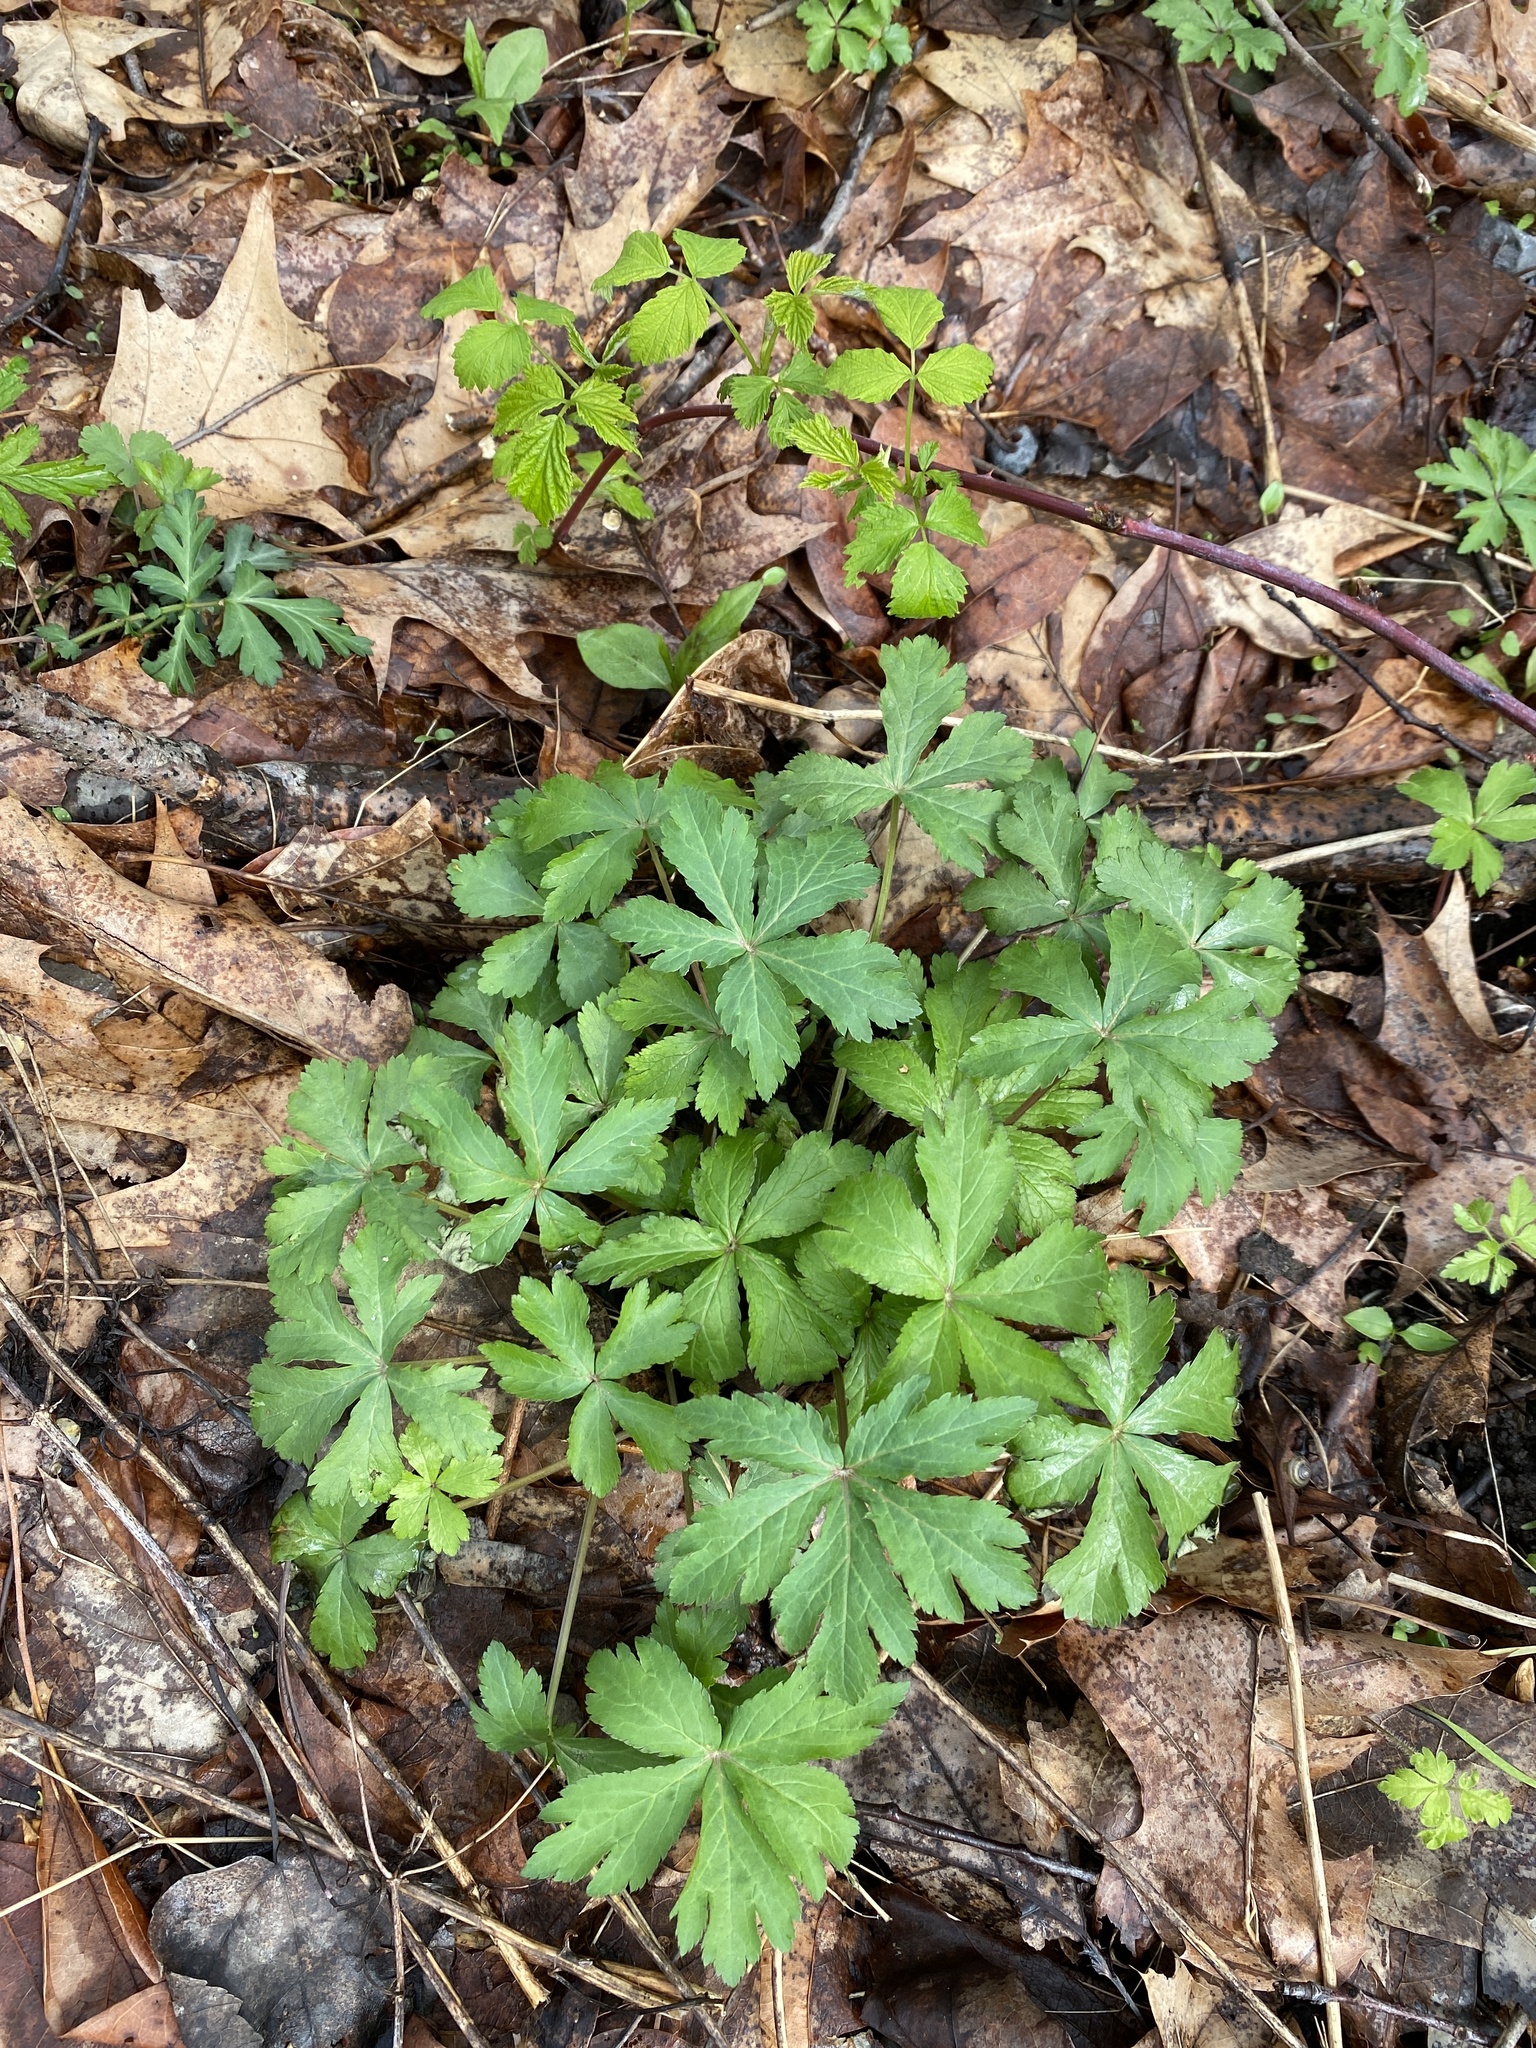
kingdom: Plantae
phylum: Tracheophyta
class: Magnoliopsida
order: Apiales
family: Apiaceae
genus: Sanicula
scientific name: Sanicula odorata
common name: Cluster sanicle
